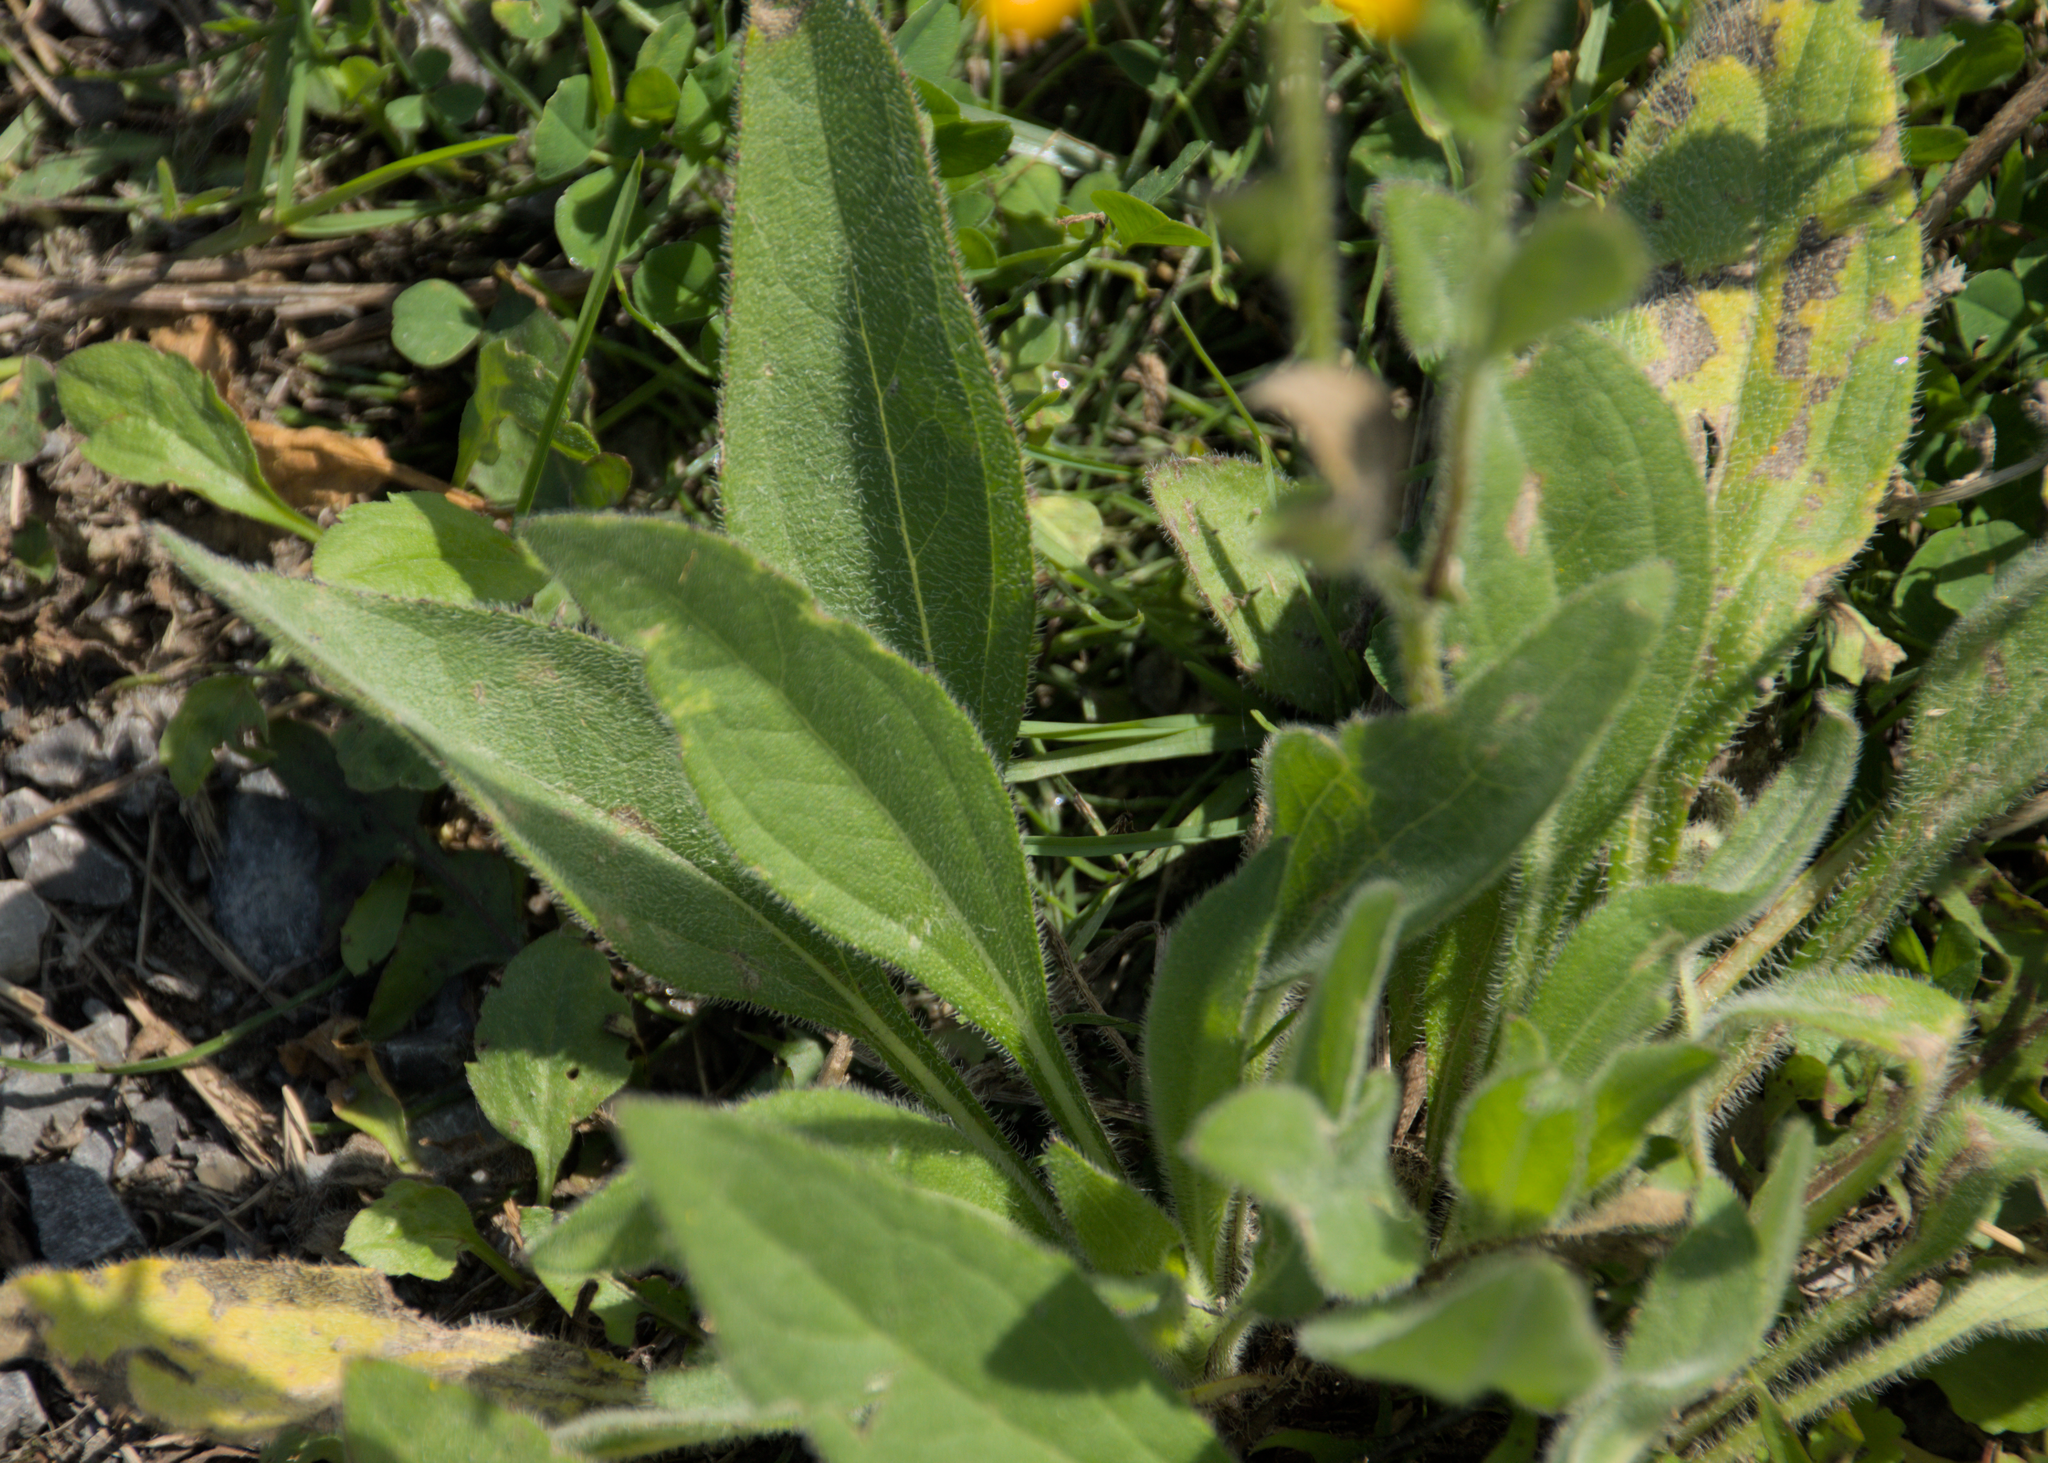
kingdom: Plantae
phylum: Tracheophyta
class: Magnoliopsida
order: Asterales
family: Asteraceae
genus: Rudbeckia
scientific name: Rudbeckia hirta
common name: Black-eyed-susan
